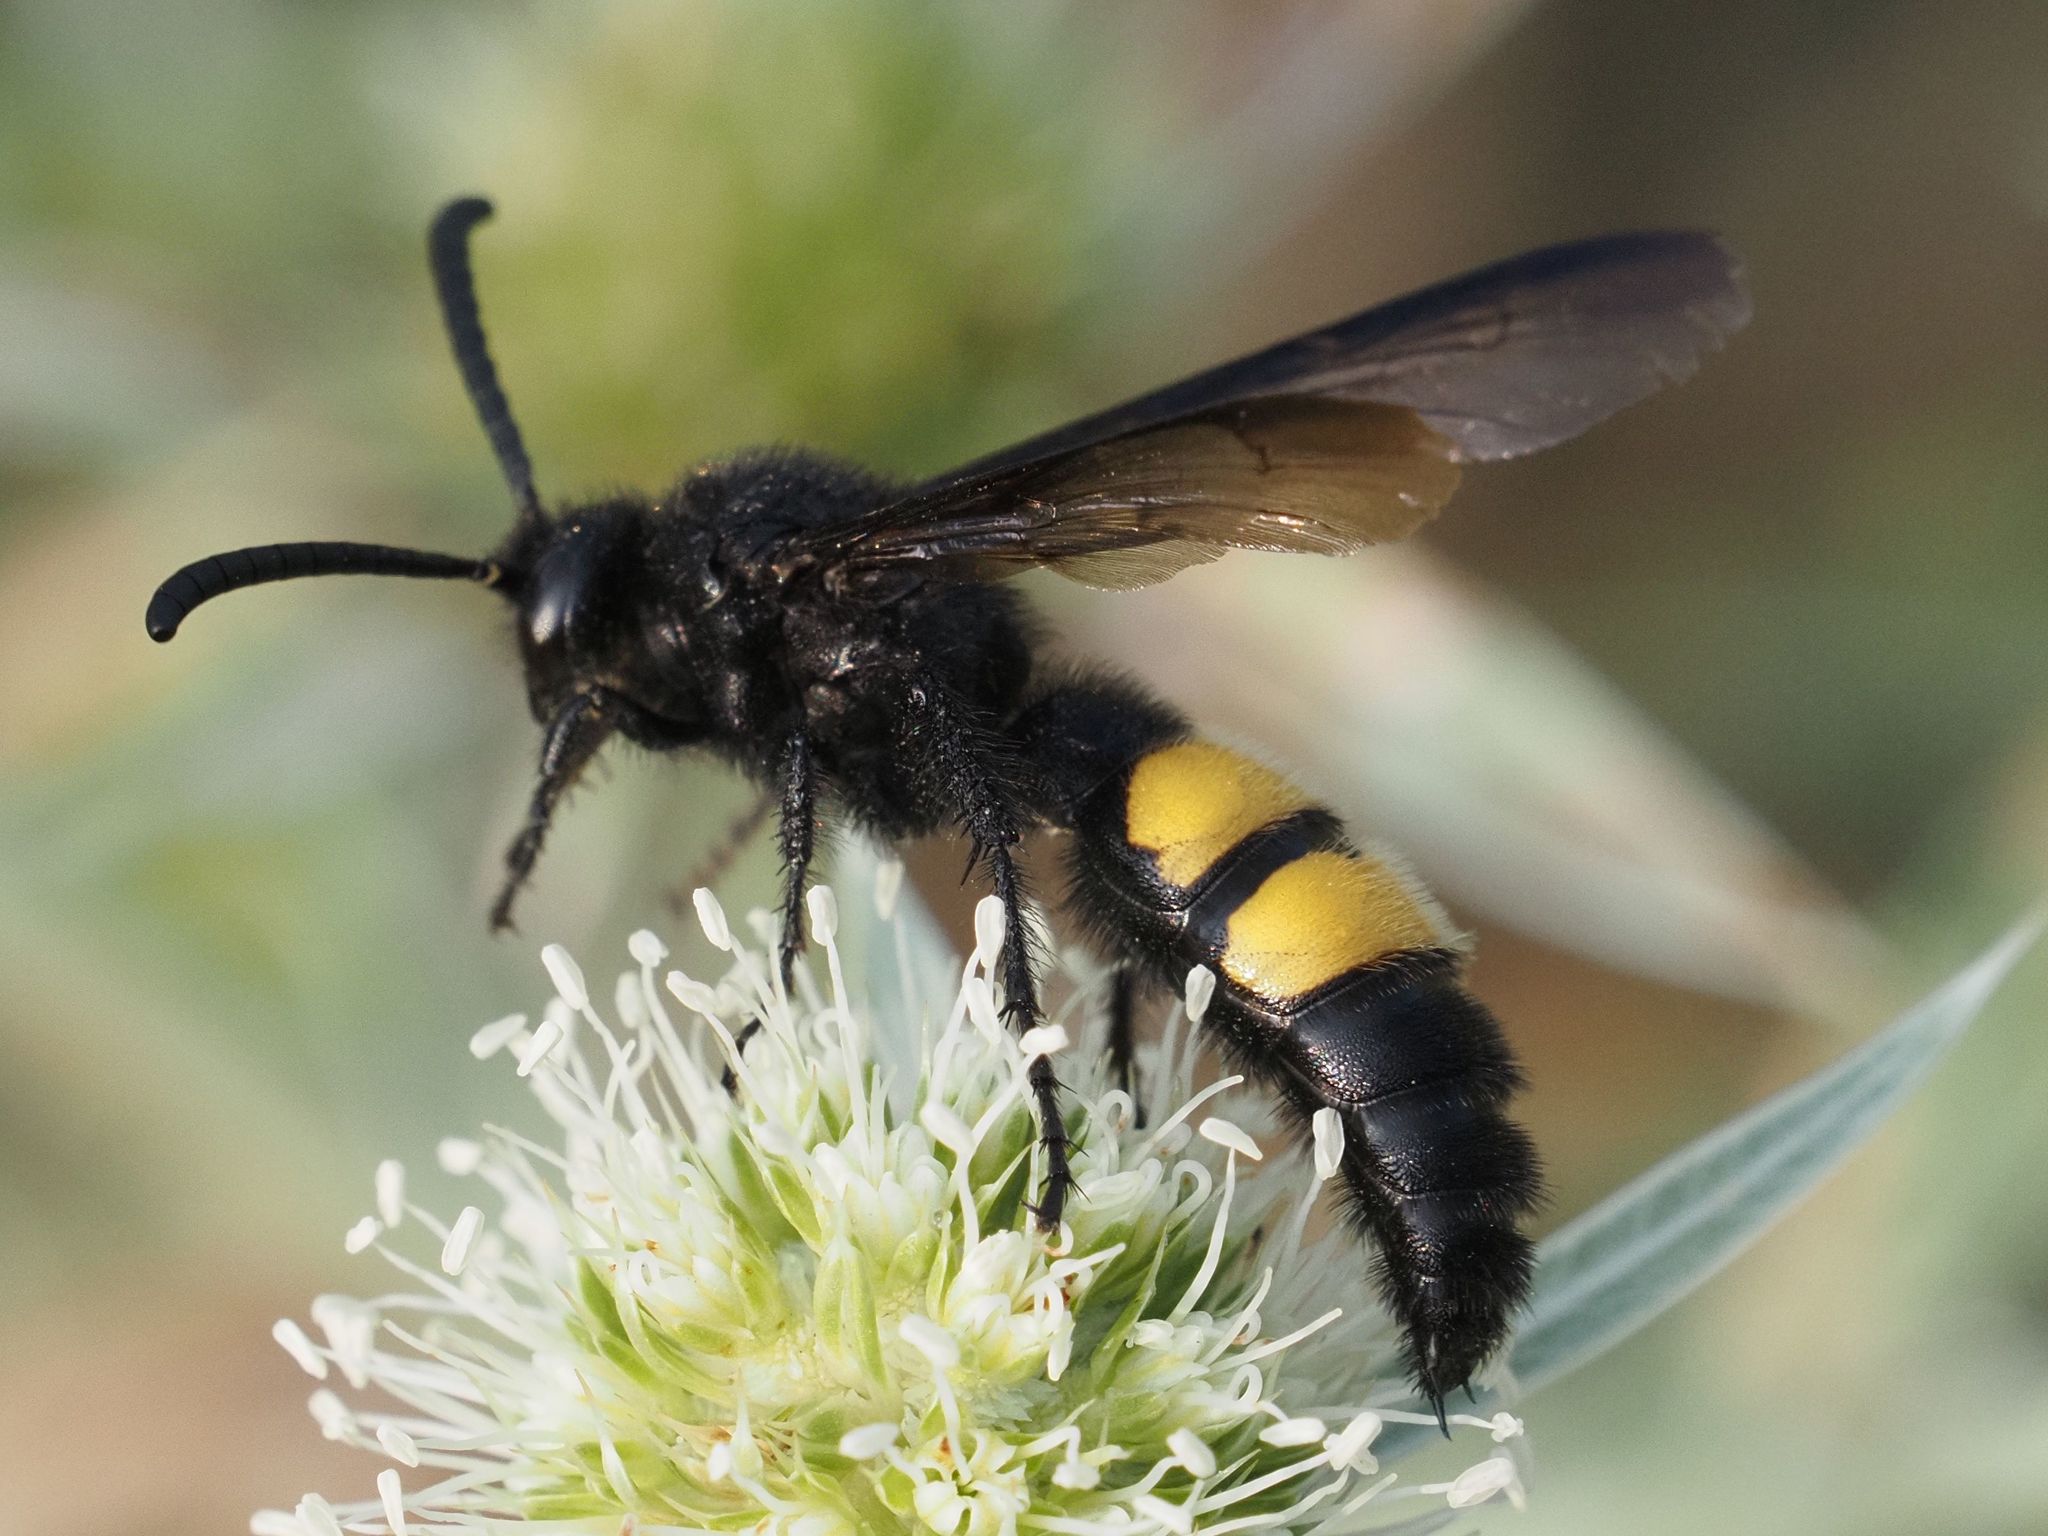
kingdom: Animalia
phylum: Arthropoda
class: Insecta
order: Hymenoptera
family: Scoliidae
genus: Scolia
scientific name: Scolia hirta
